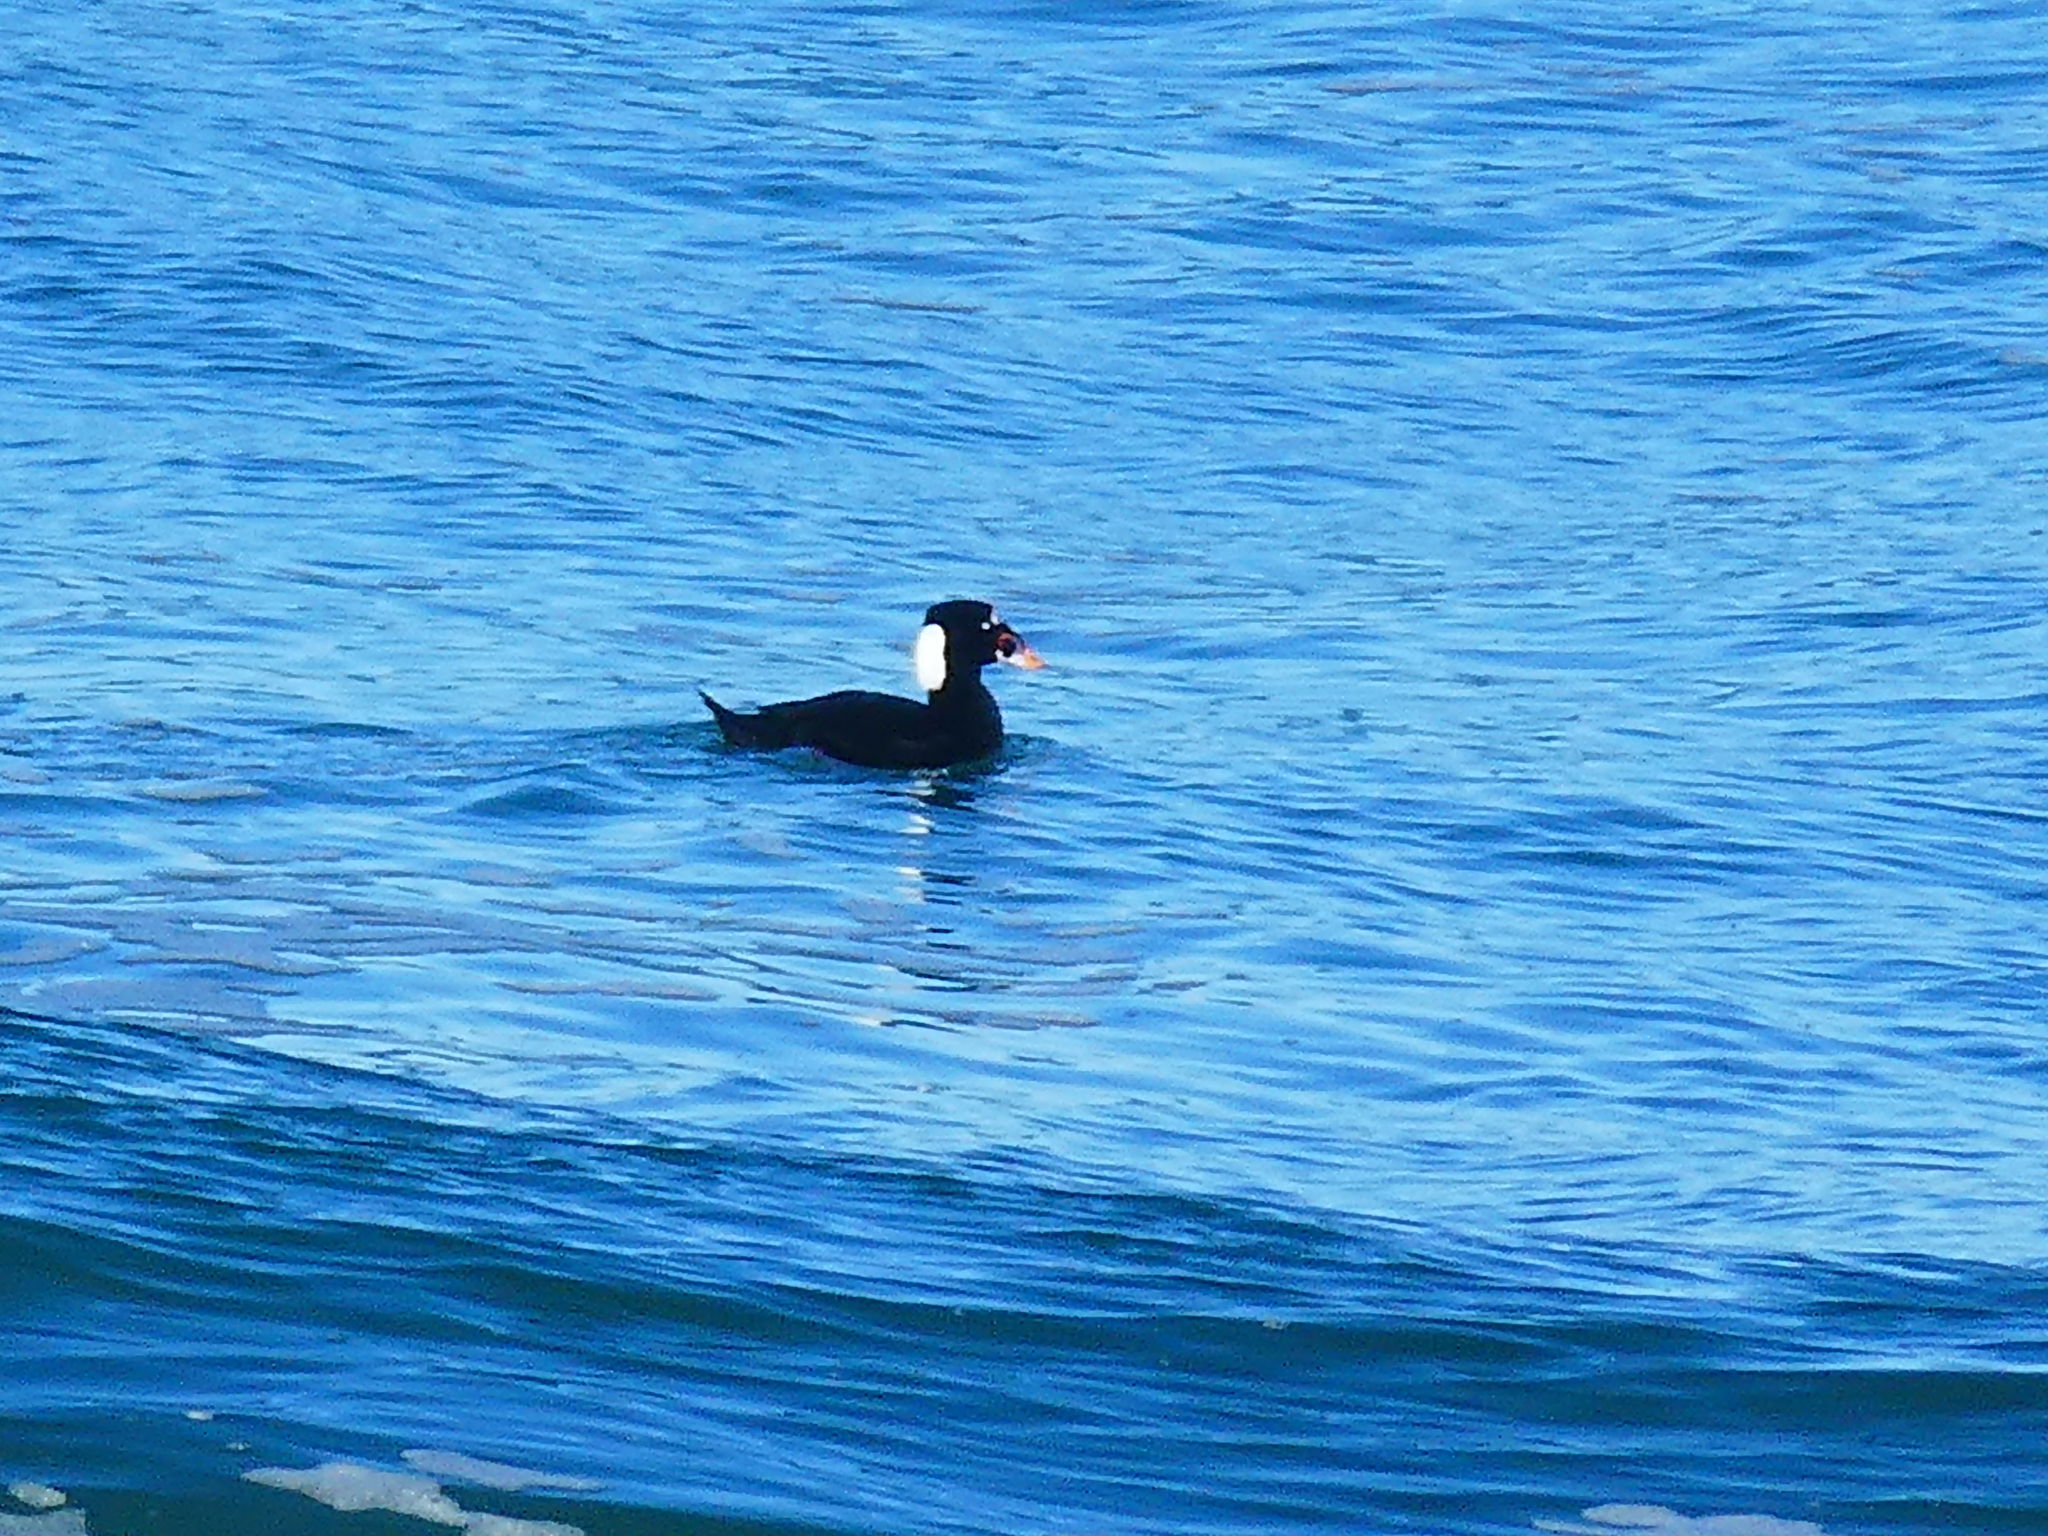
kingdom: Animalia
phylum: Chordata
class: Aves
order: Anseriformes
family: Anatidae
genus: Melanitta
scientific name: Melanitta perspicillata
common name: Surf scoter
